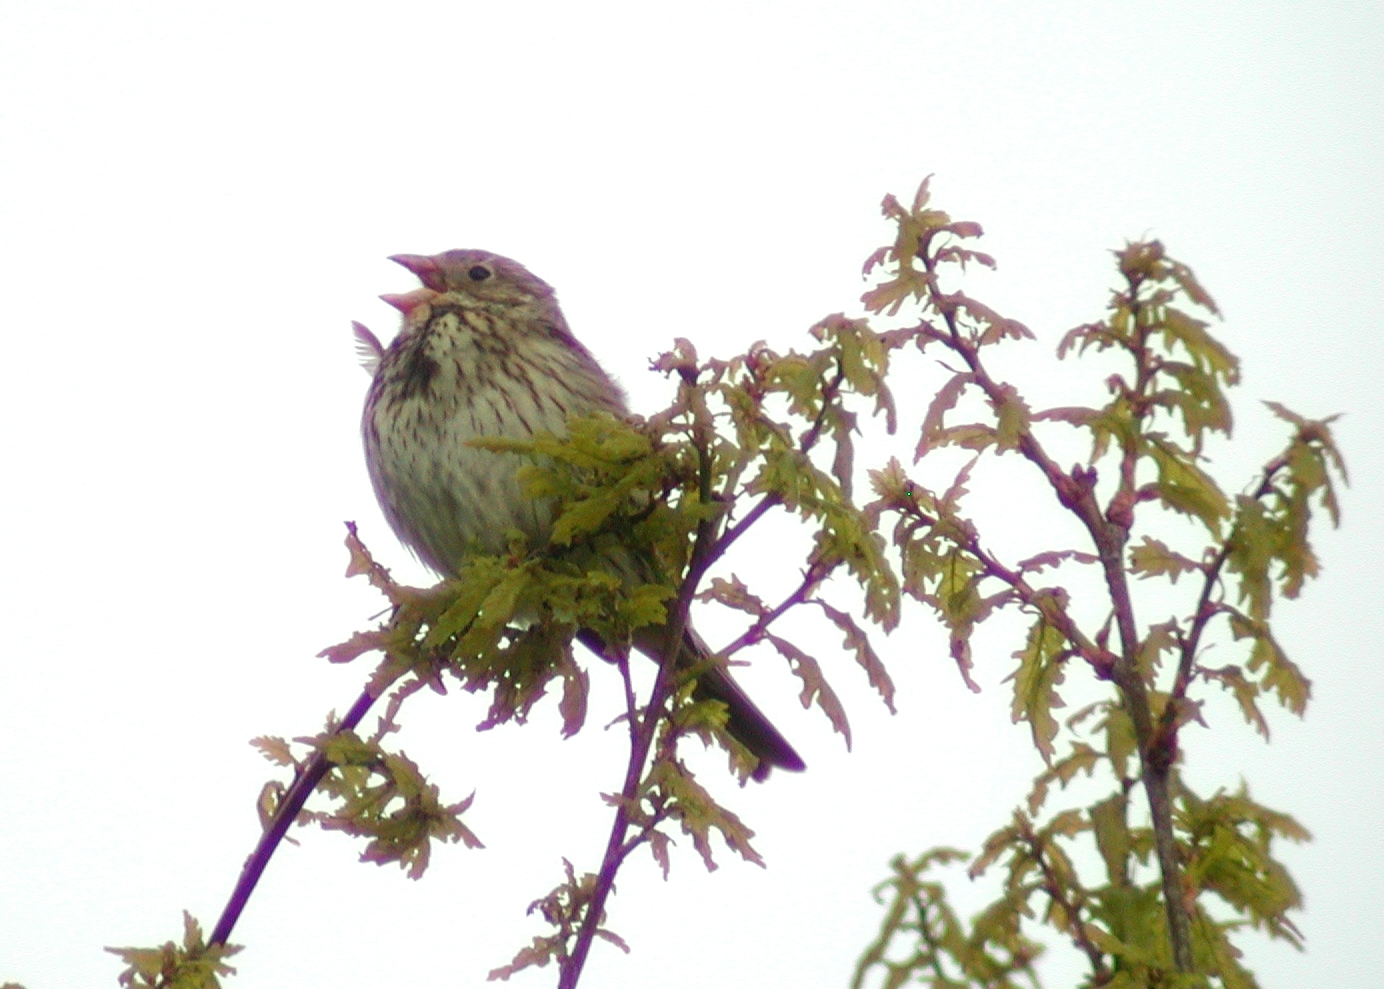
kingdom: Animalia
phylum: Chordata
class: Aves
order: Passeriformes
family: Emberizidae
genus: Emberiza
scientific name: Emberiza calandra
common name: Corn bunting
